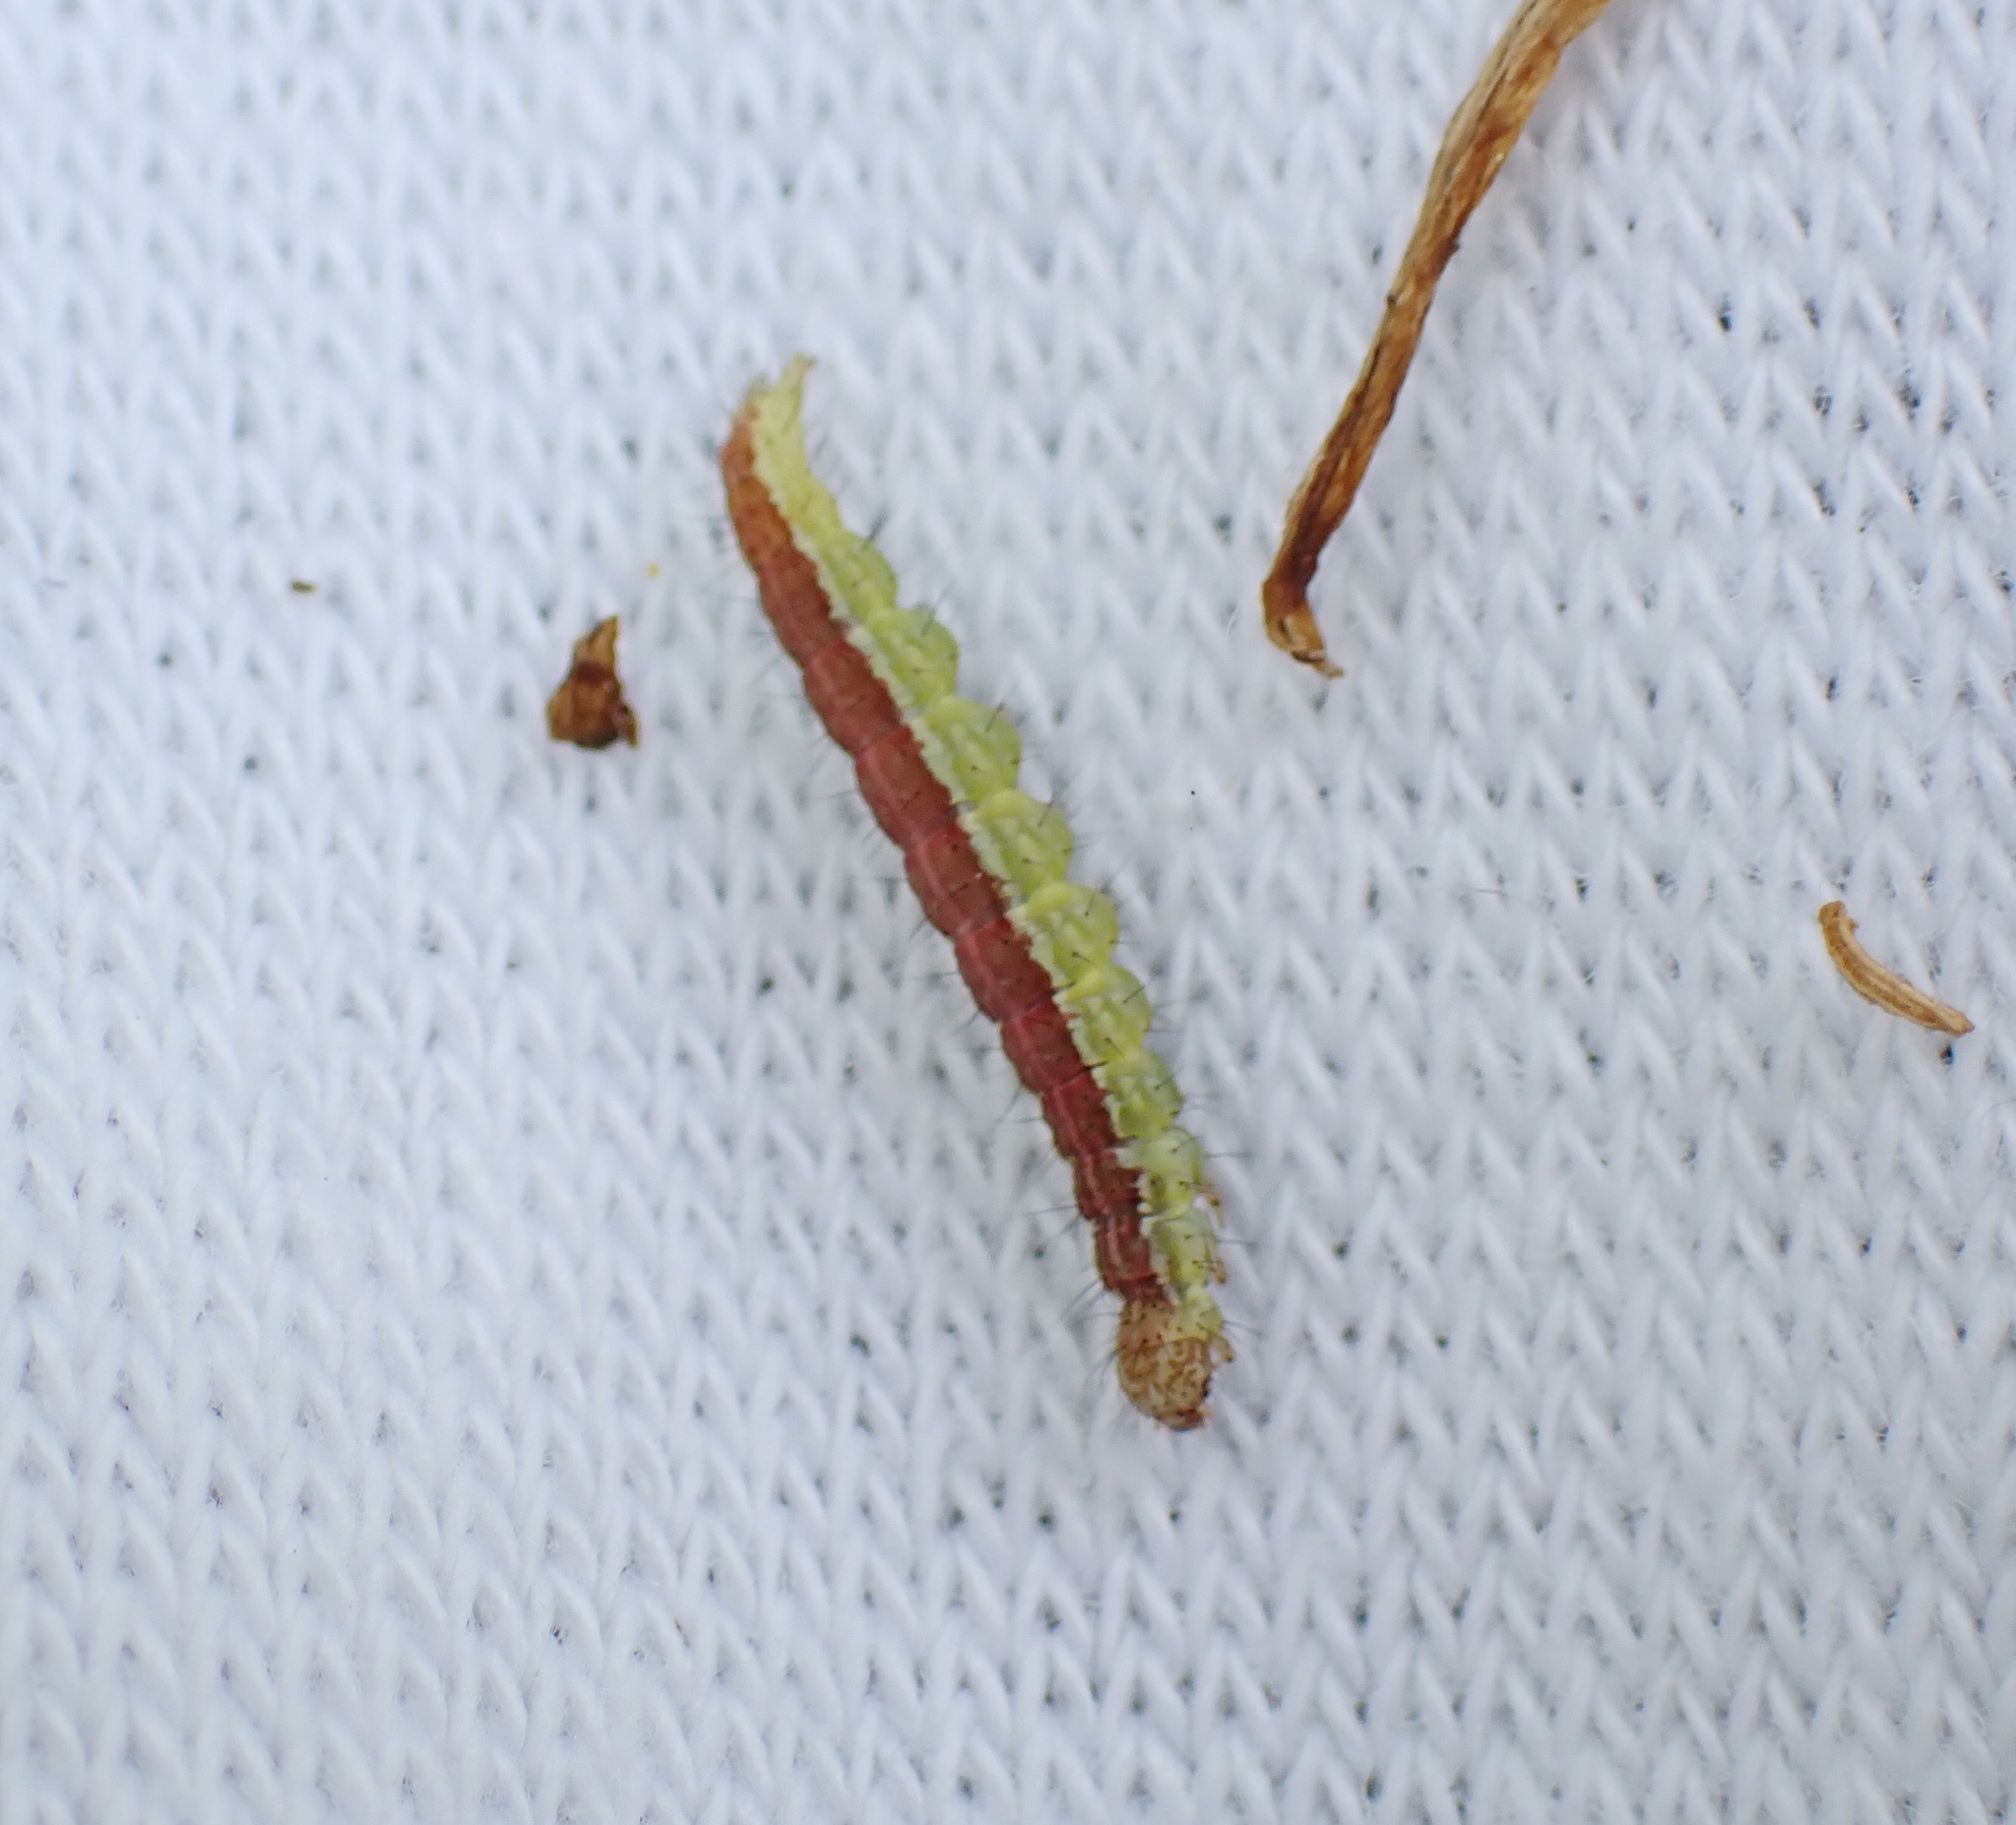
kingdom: Animalia
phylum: Arthropoda
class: Insecta
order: Lepidoptera
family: Ypsolophidae
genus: Ypsolopha
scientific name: Ypsolopha dentella
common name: Honeysuckle moth
